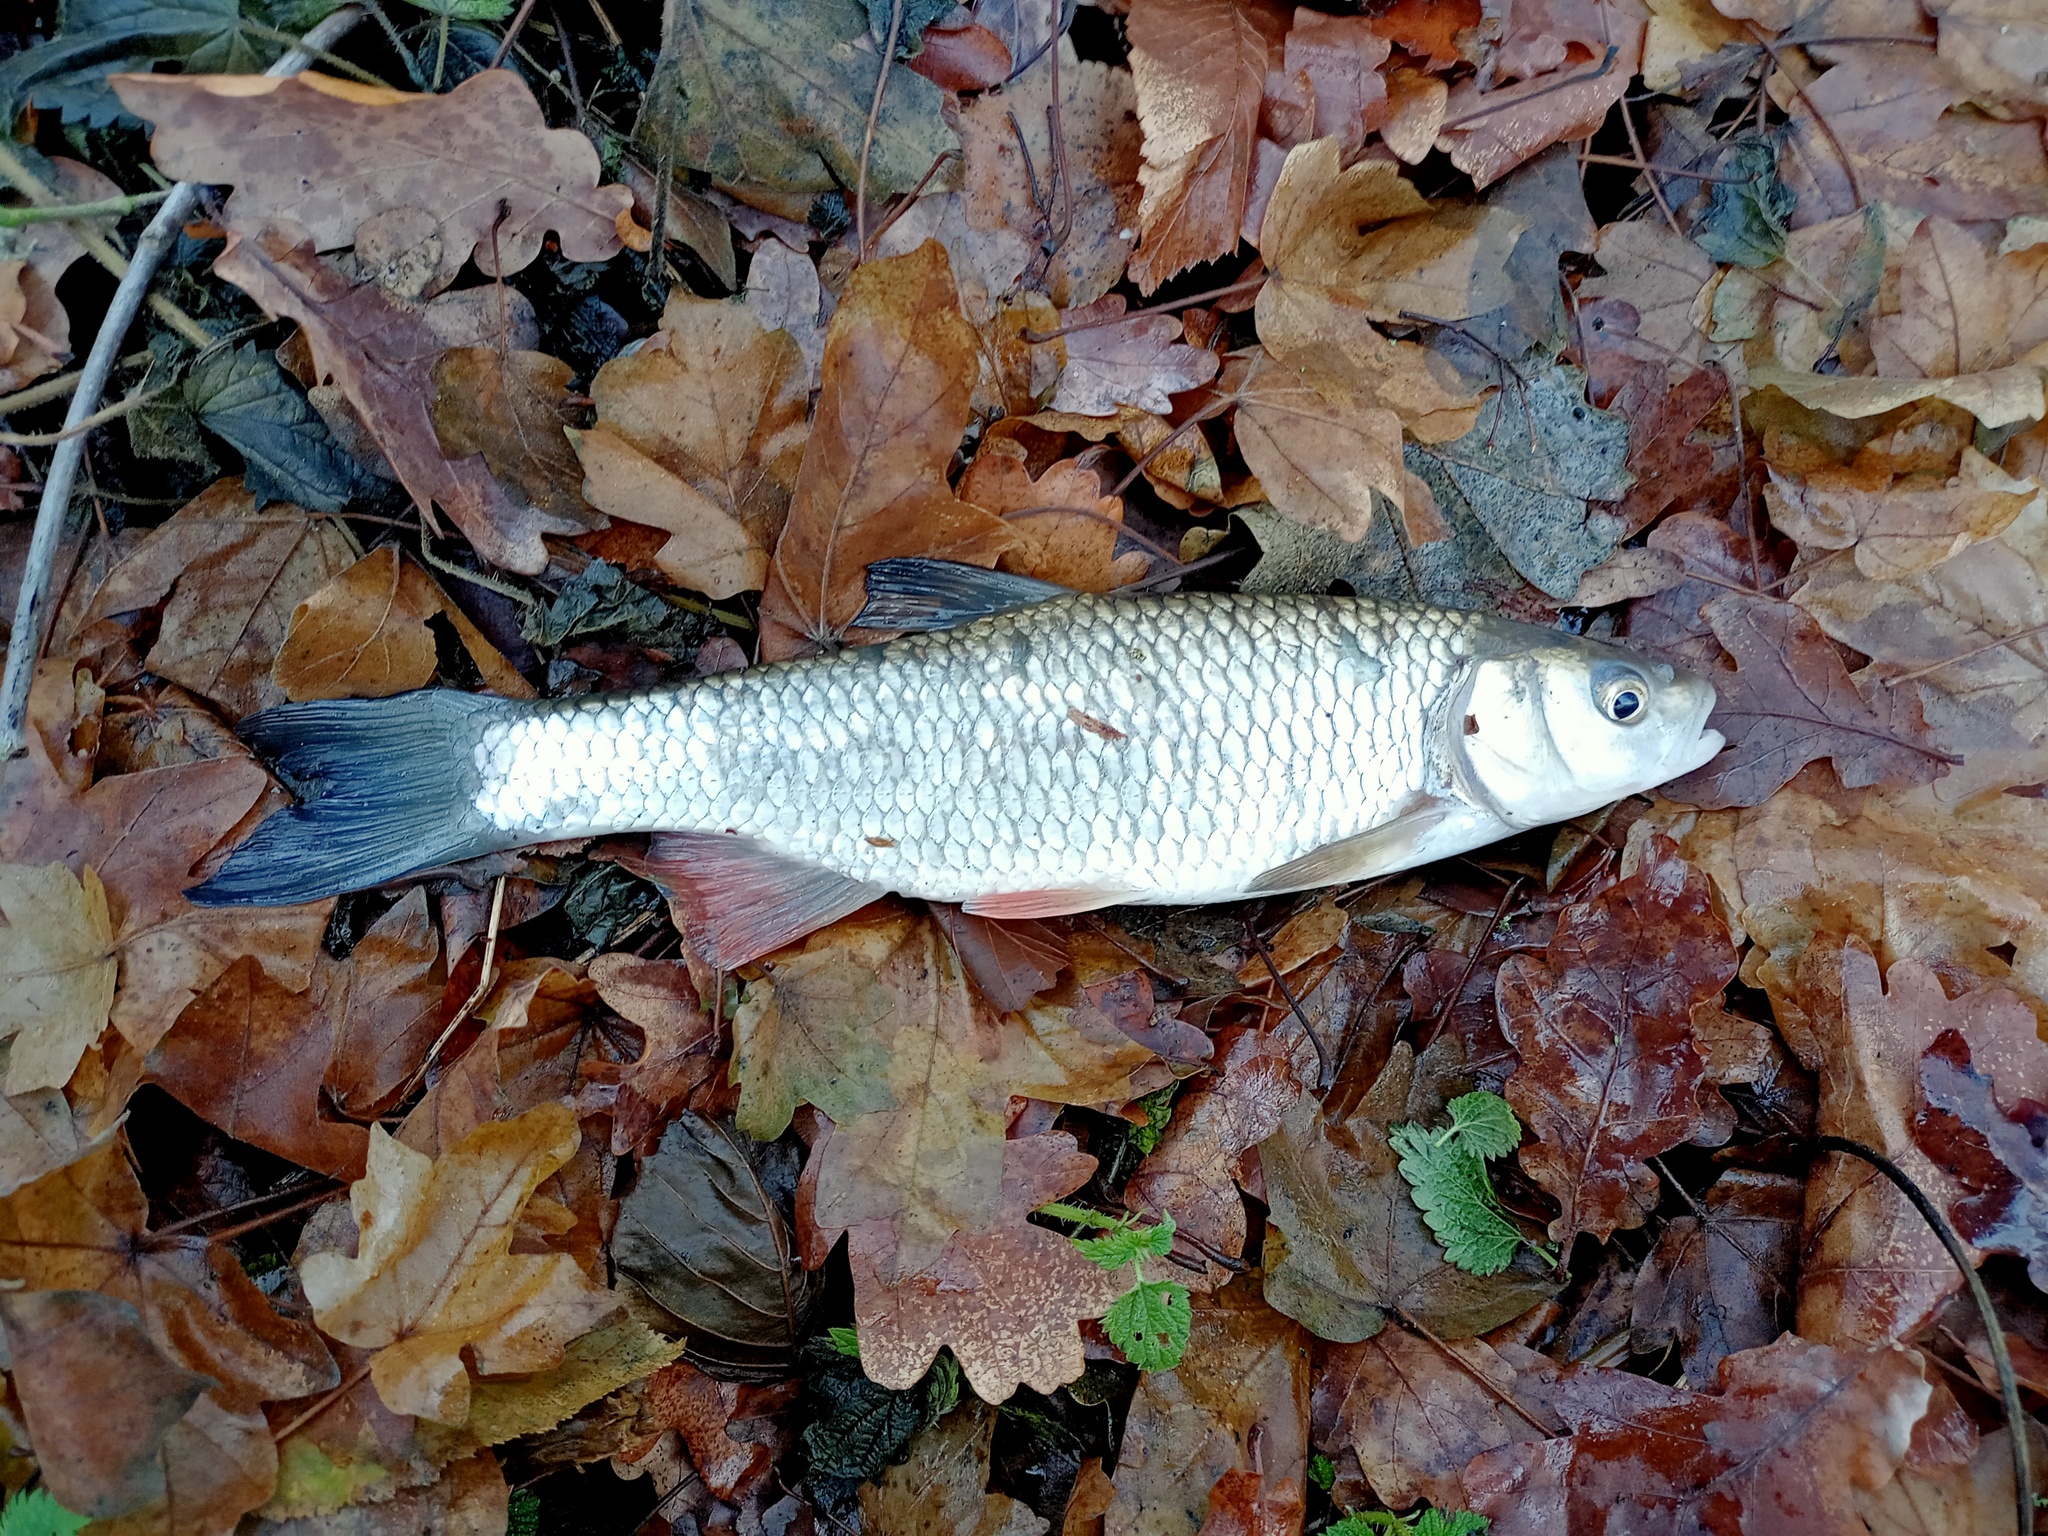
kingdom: Animalia
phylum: Chordata
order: Cypriniformes
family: Cyprinidae
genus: Squalius
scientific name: Squalius cephalus
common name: Chub
